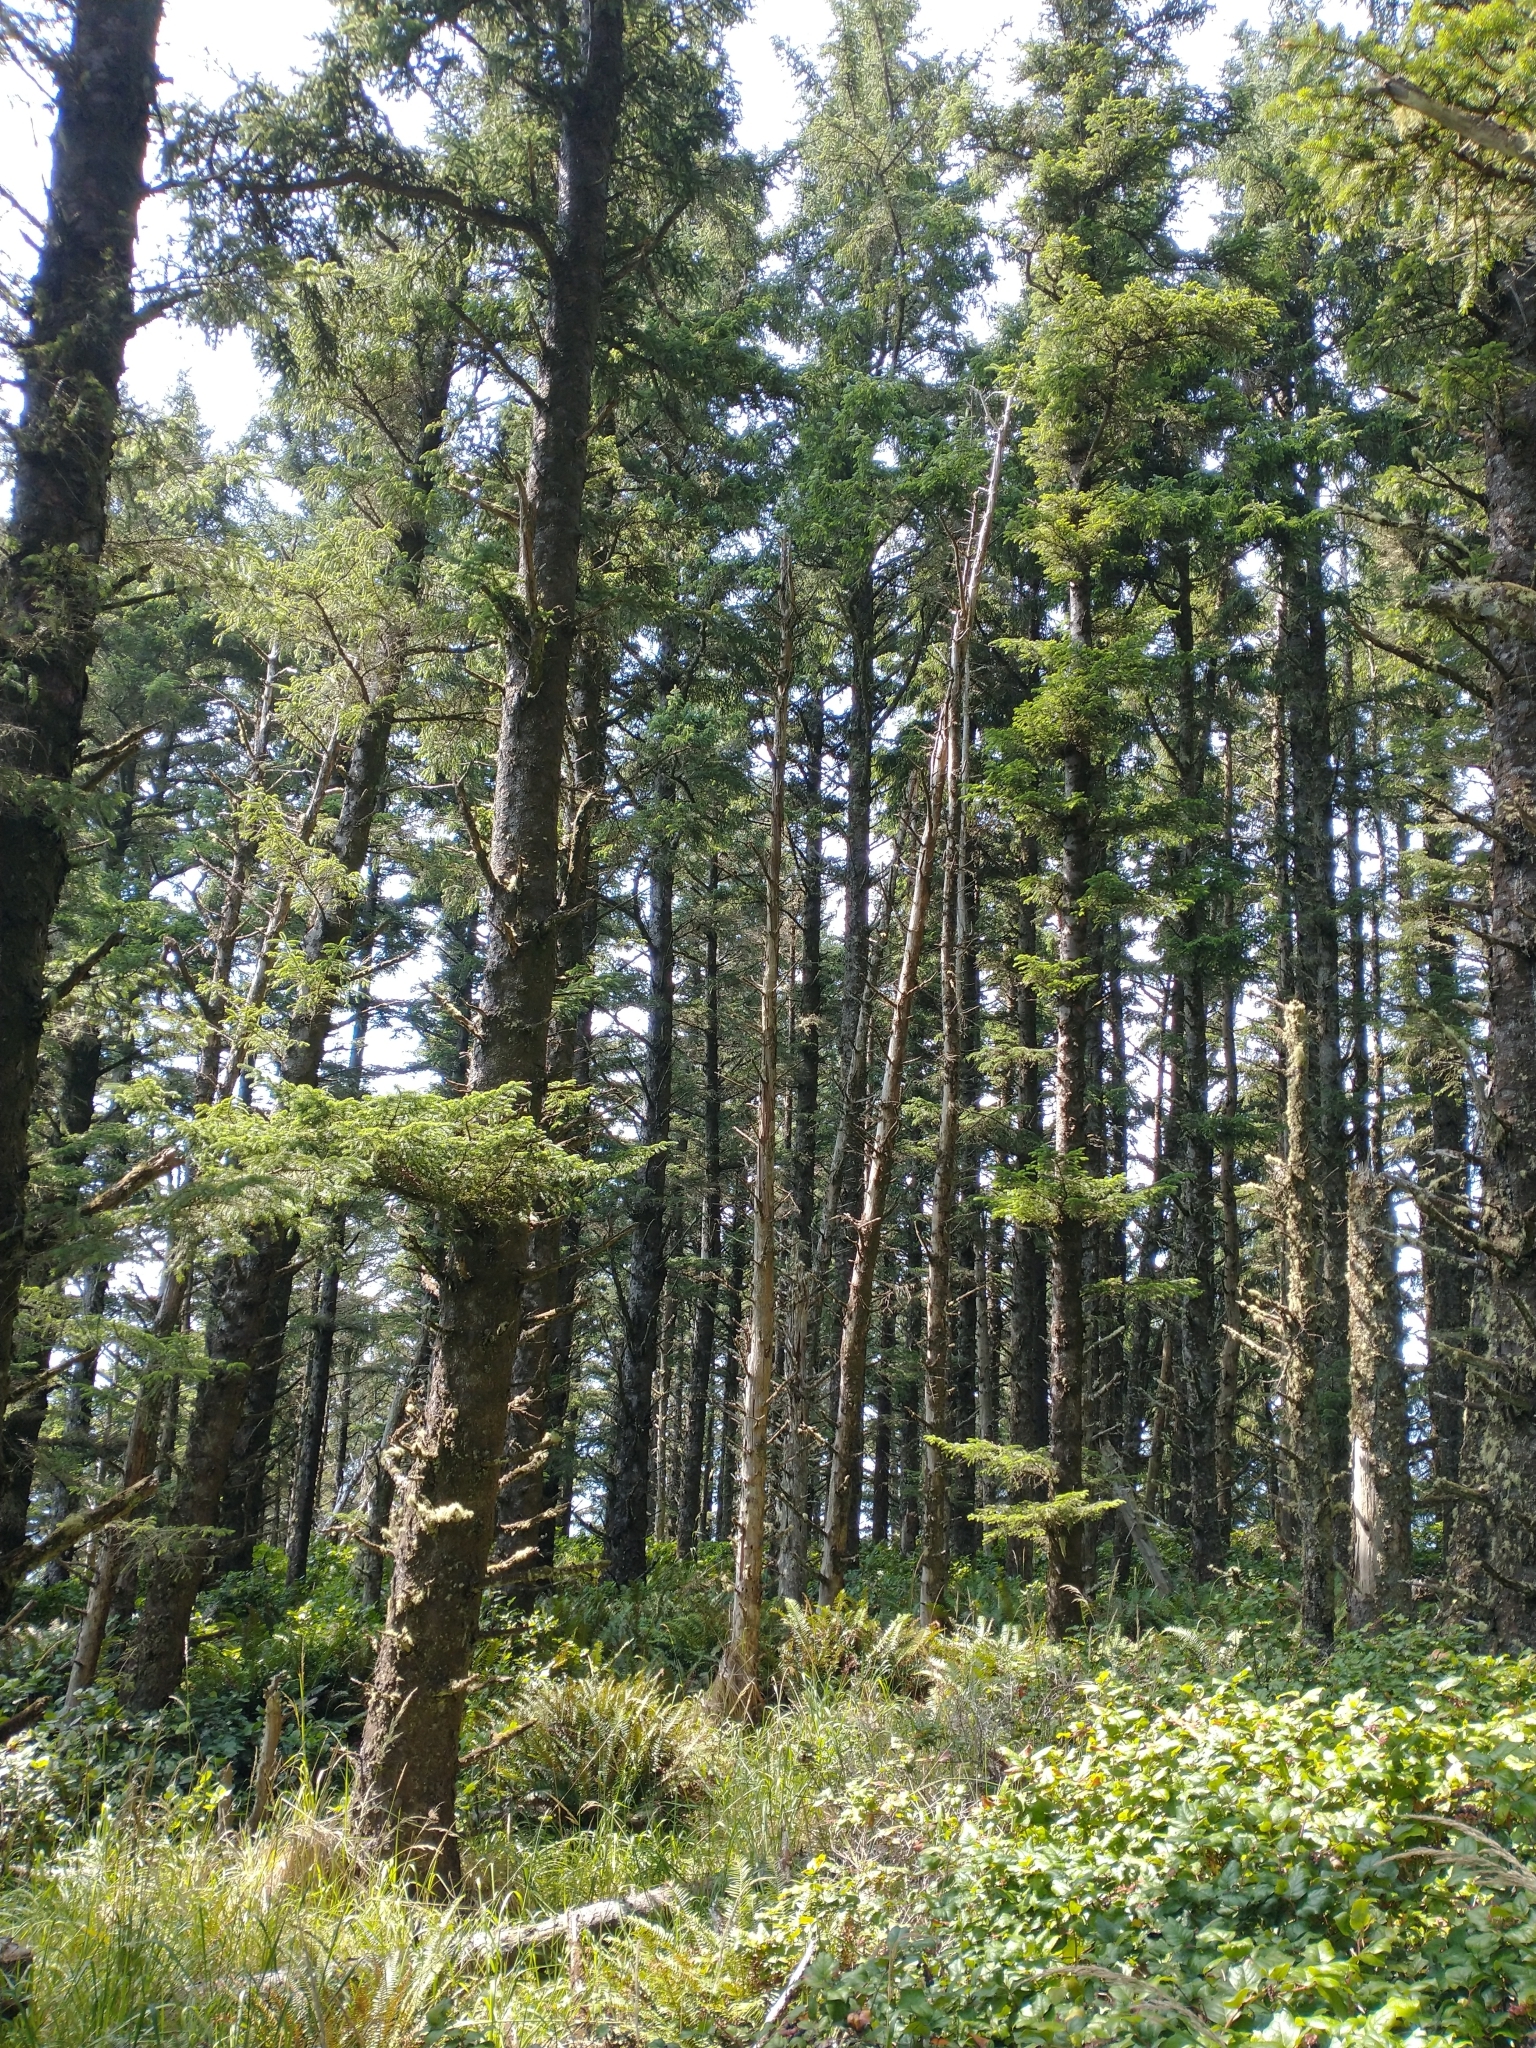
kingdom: Plantae
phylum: Tracheophyta
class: Pinopsida
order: Pinales
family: Pinaceae
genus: Picea
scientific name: Picea sitchensis
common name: Sitka spruce
